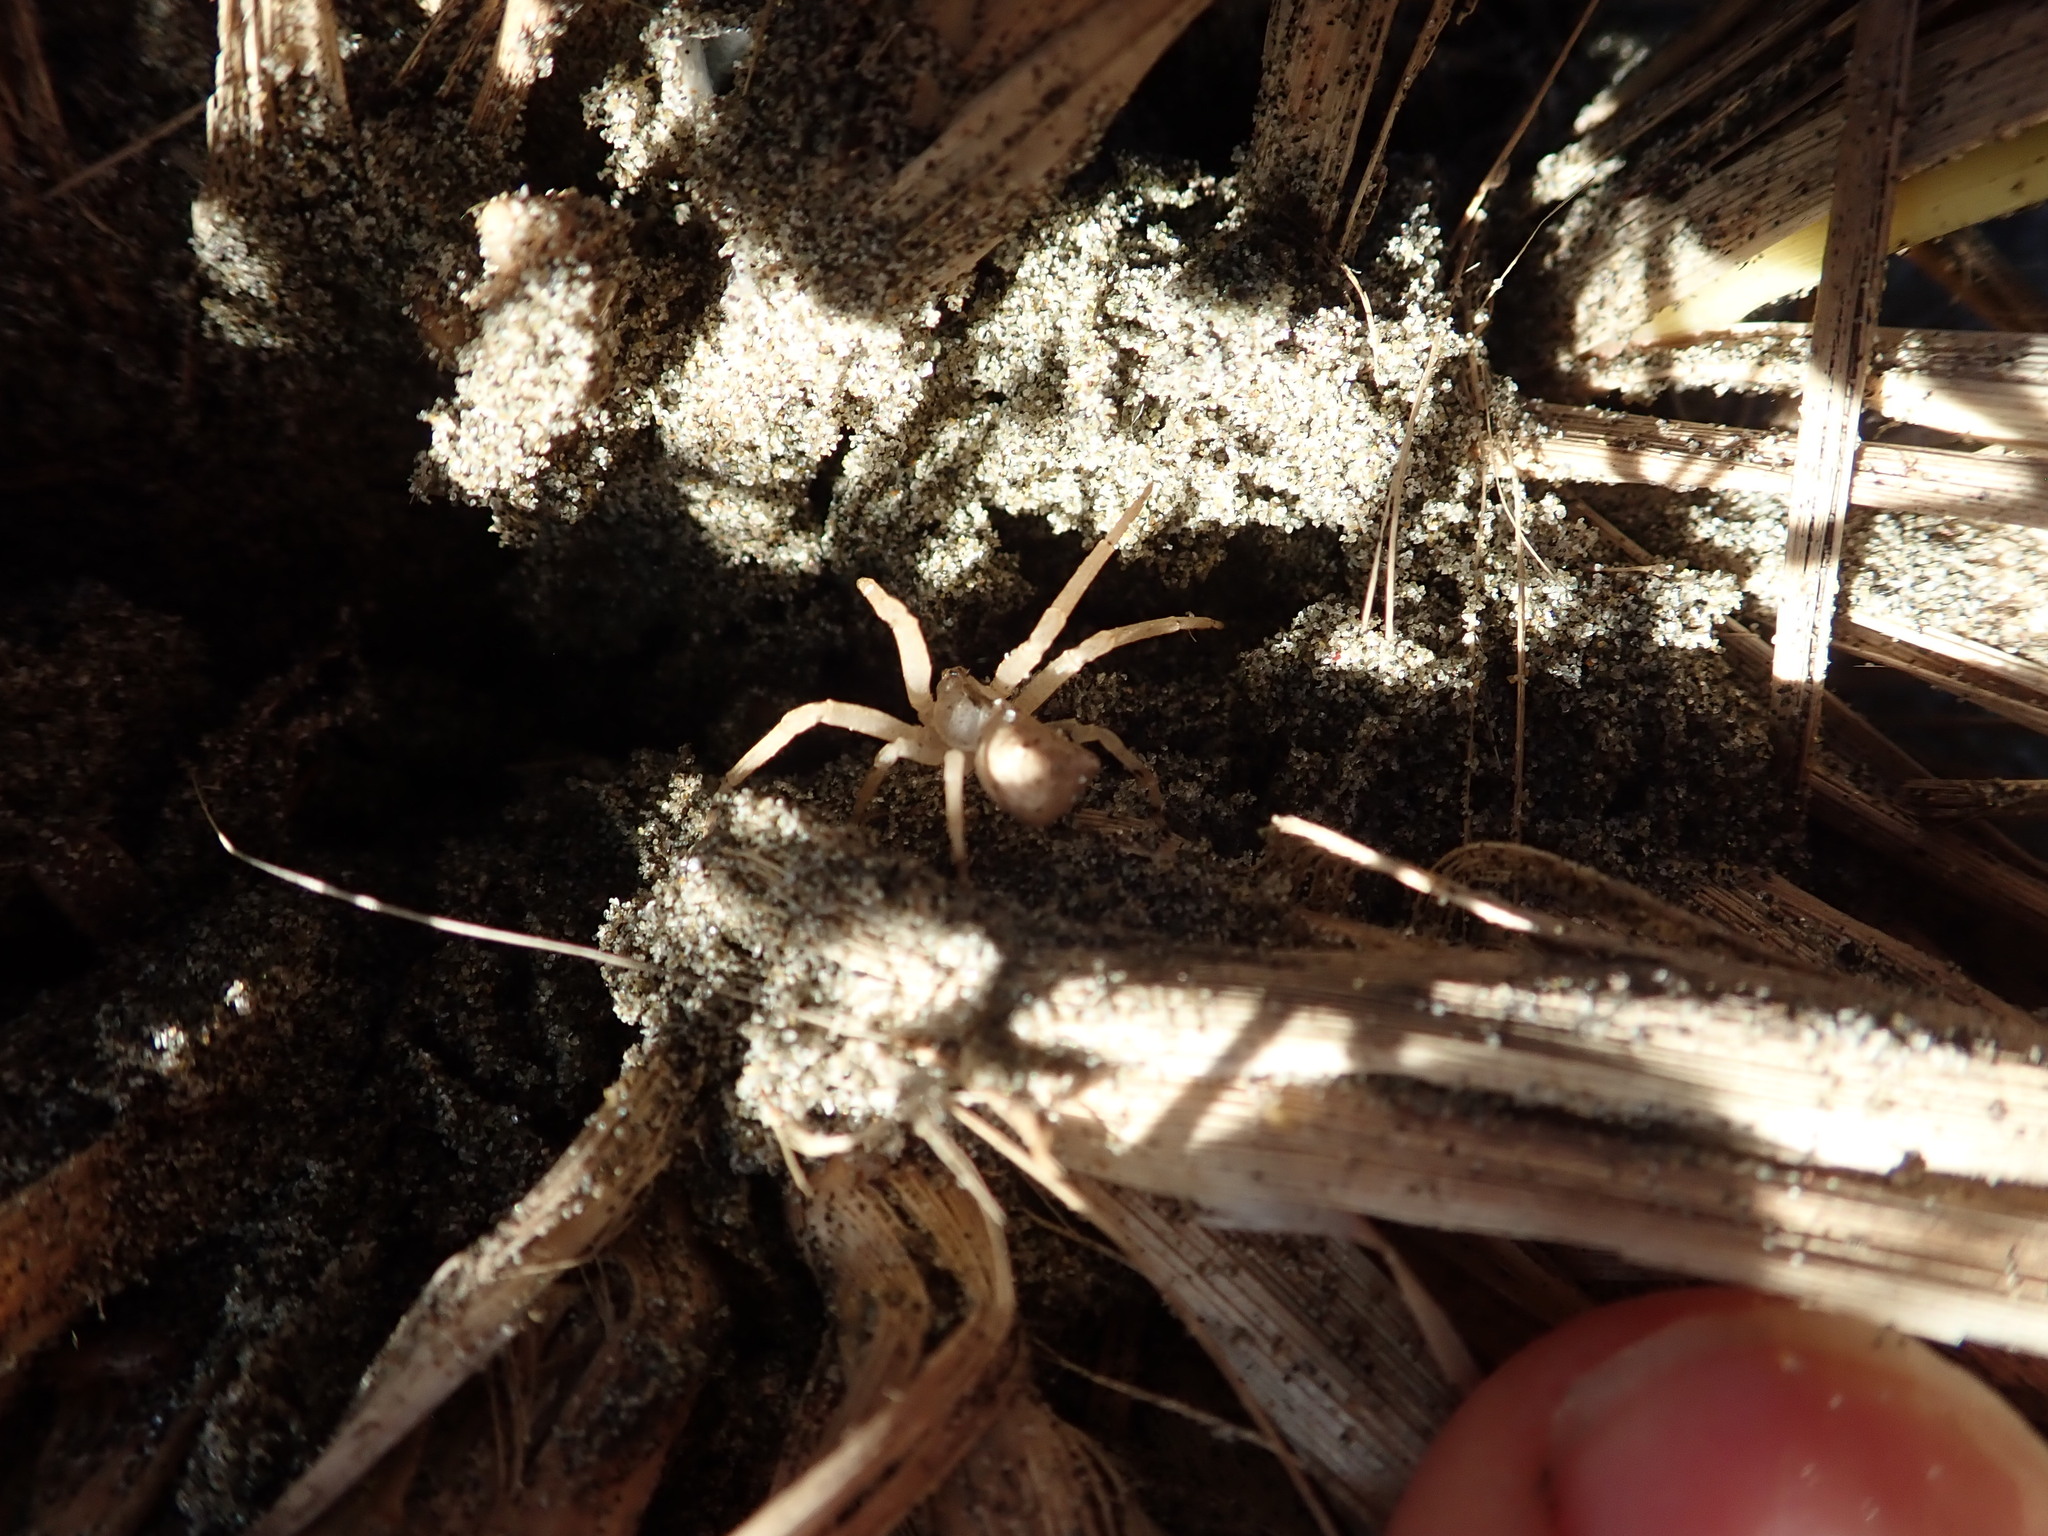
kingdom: Animalia
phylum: Arthropoda
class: Arachnida
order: Araneae
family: Thomisidae
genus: Sidymella
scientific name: Sidymella trapezia
